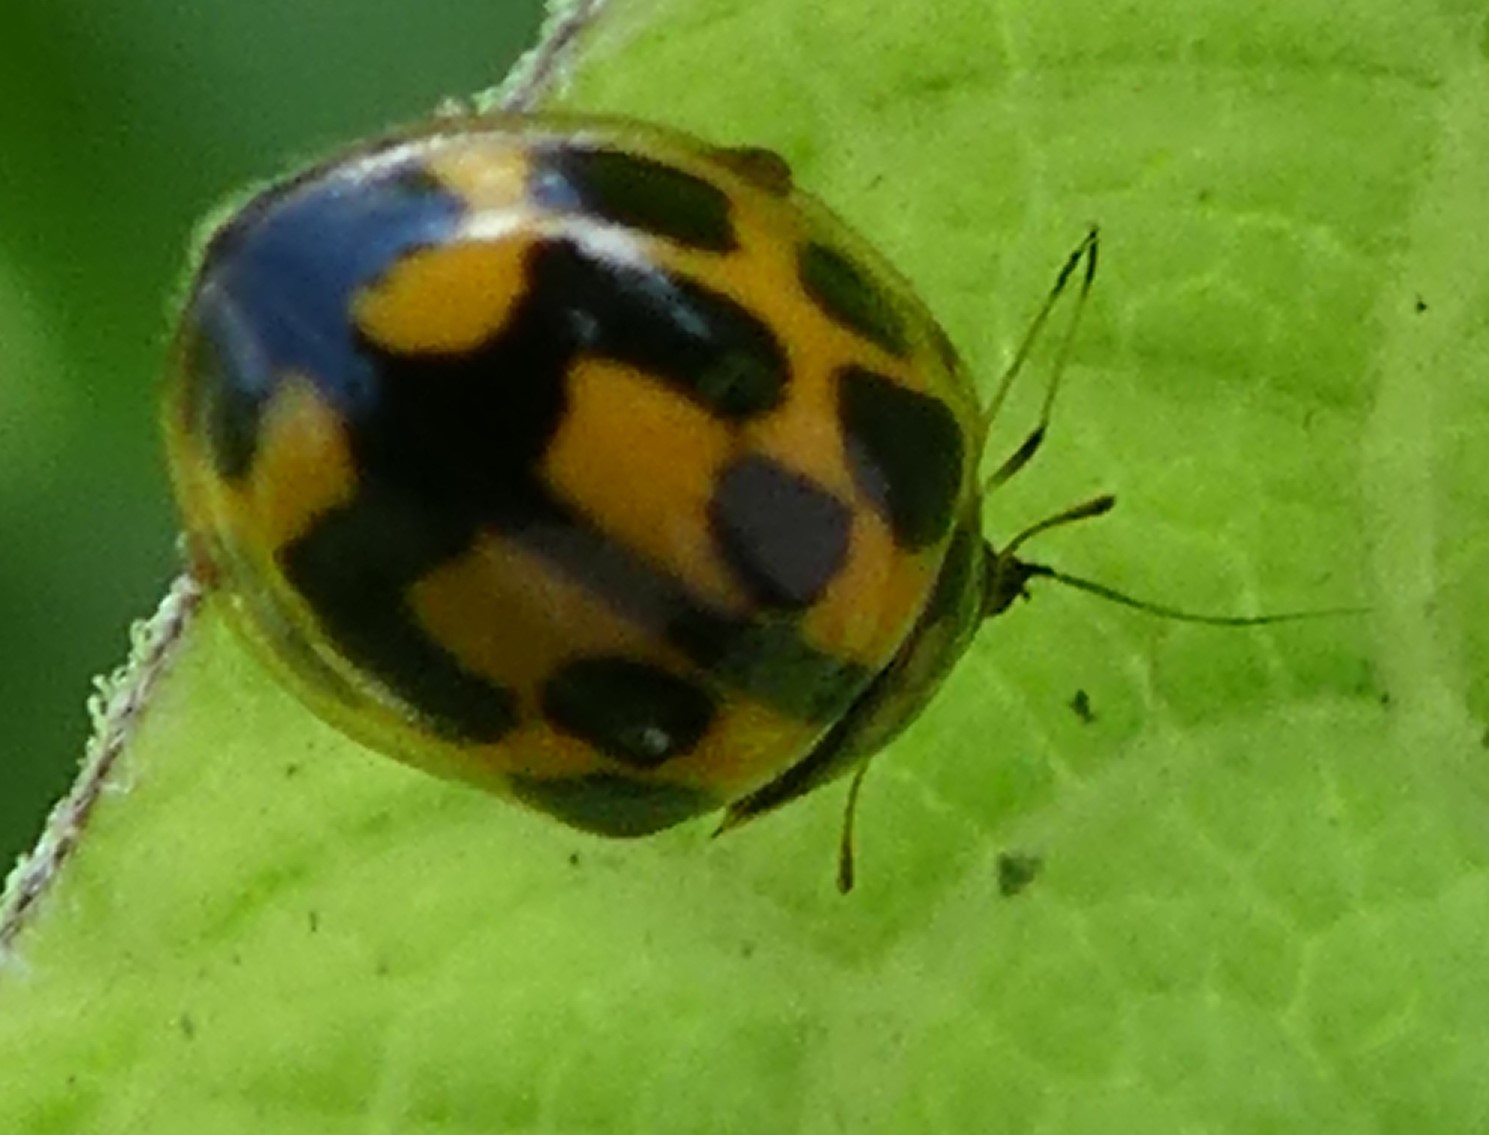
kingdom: Animalia
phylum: Arthropoda
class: Insecta
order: Coleoptera
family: Coccinellidae
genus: Propylaea
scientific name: Propylaea quatuordecimpunctata
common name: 14-spotted ladybird beetle
